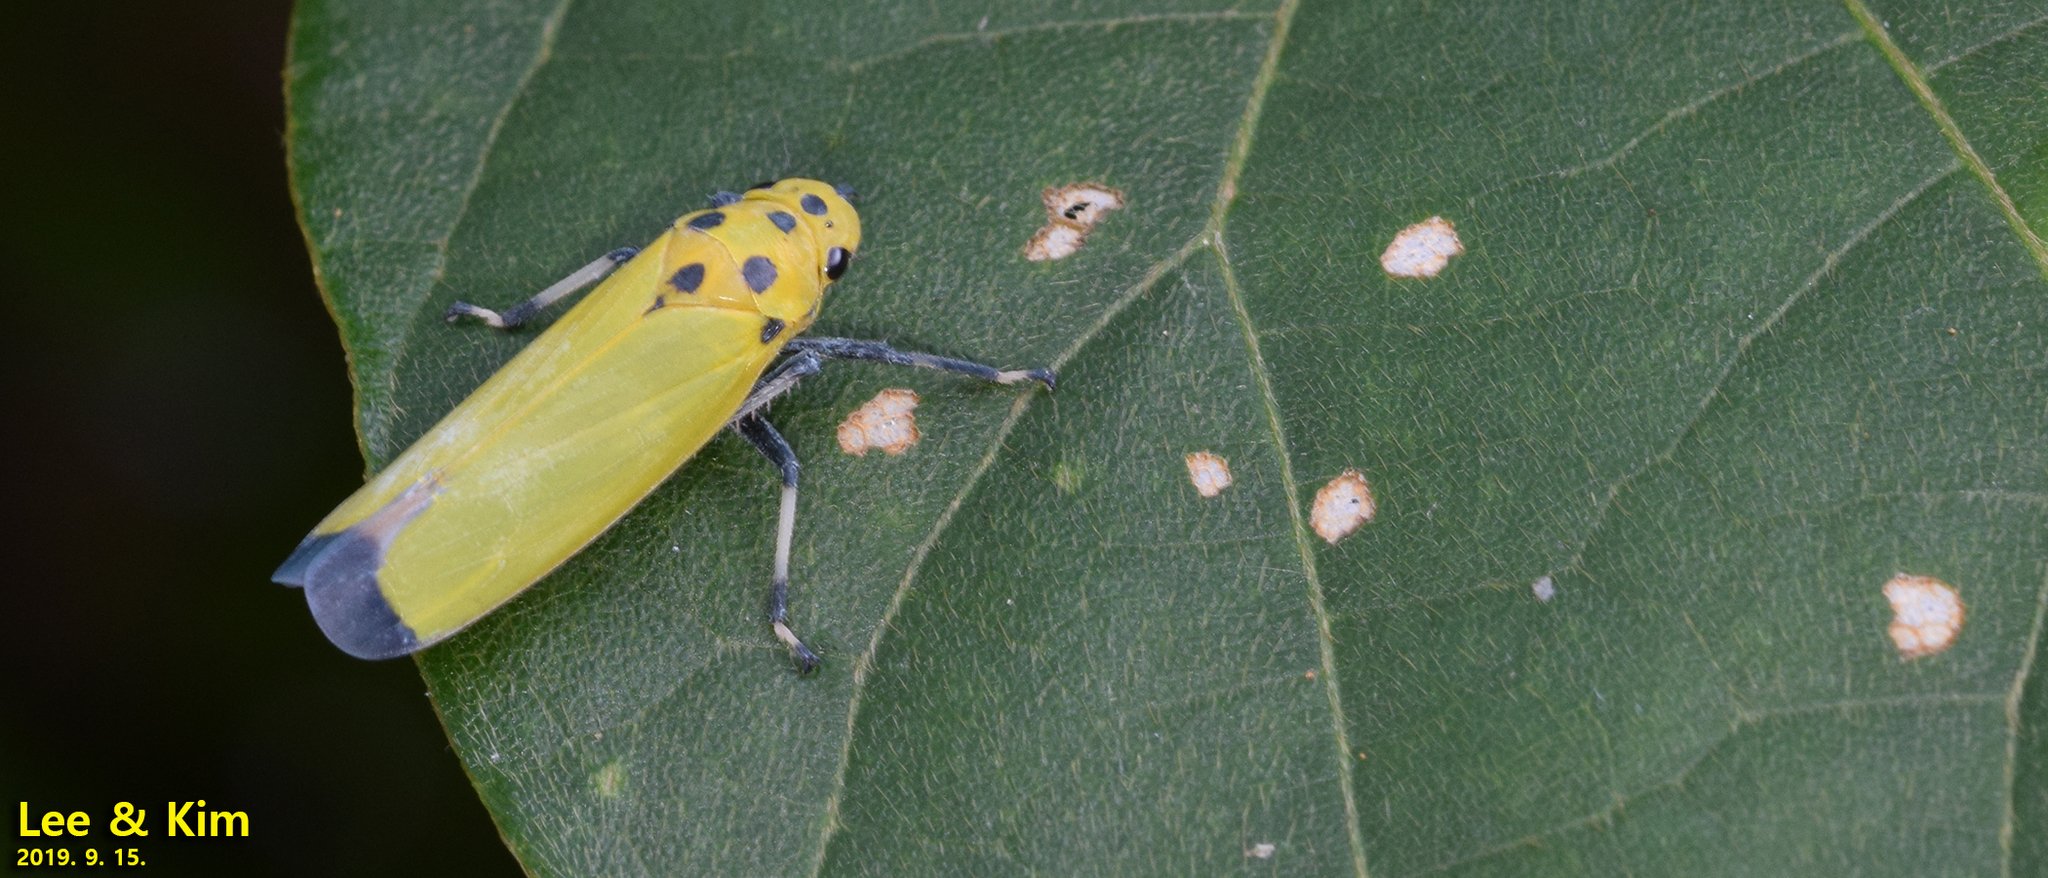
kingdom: Animalia
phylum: Arthropoda
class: Insecta
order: Hemiptera
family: Cicadellidae
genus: Bothrogonia
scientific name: Bothrogonia ferruginea
